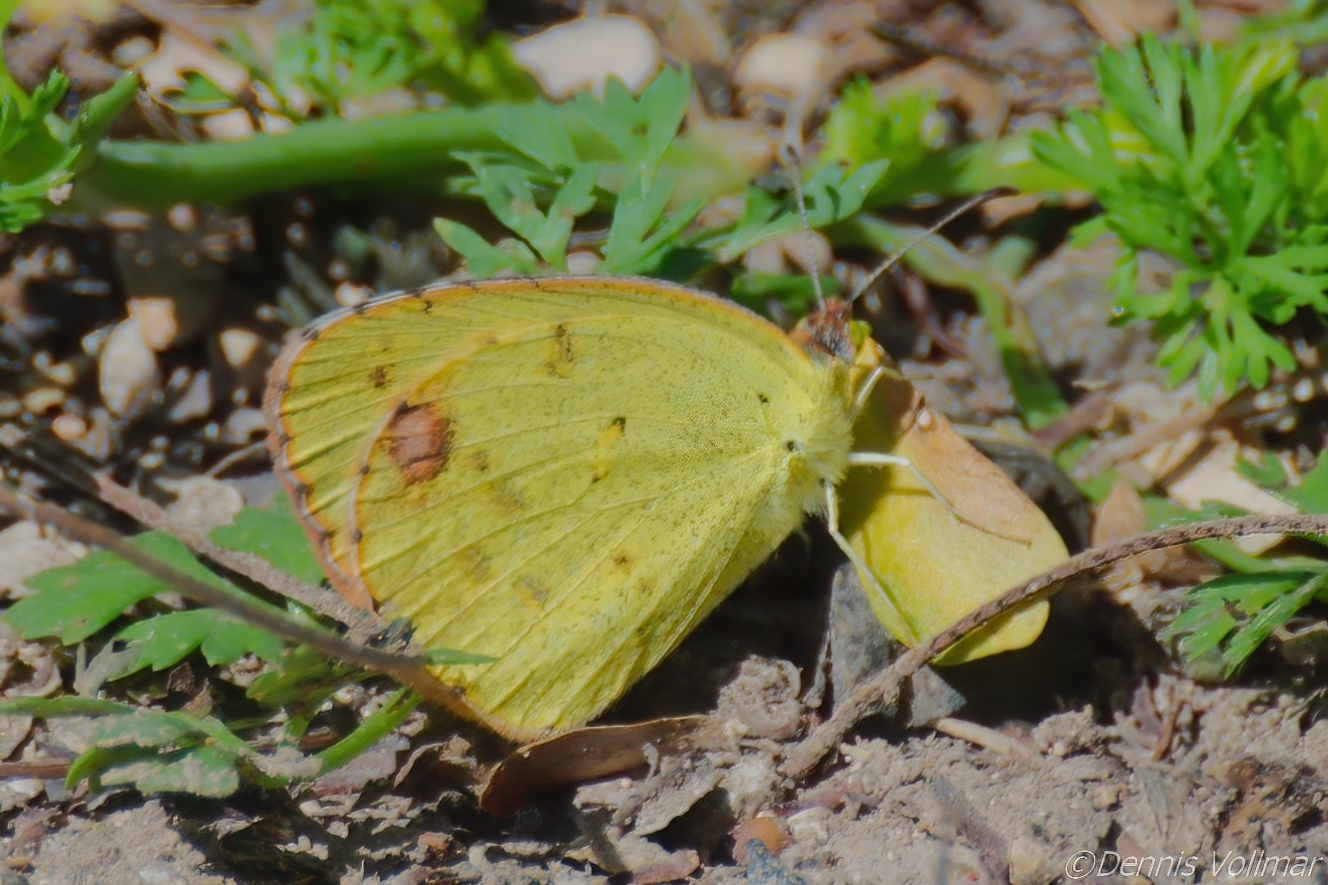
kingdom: Animalia
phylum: Arthropoda
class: Insecta
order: Lepidoptera
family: Pieridae
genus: Pyrisitia
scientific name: Pyrisitia lisa
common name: Little yellow
